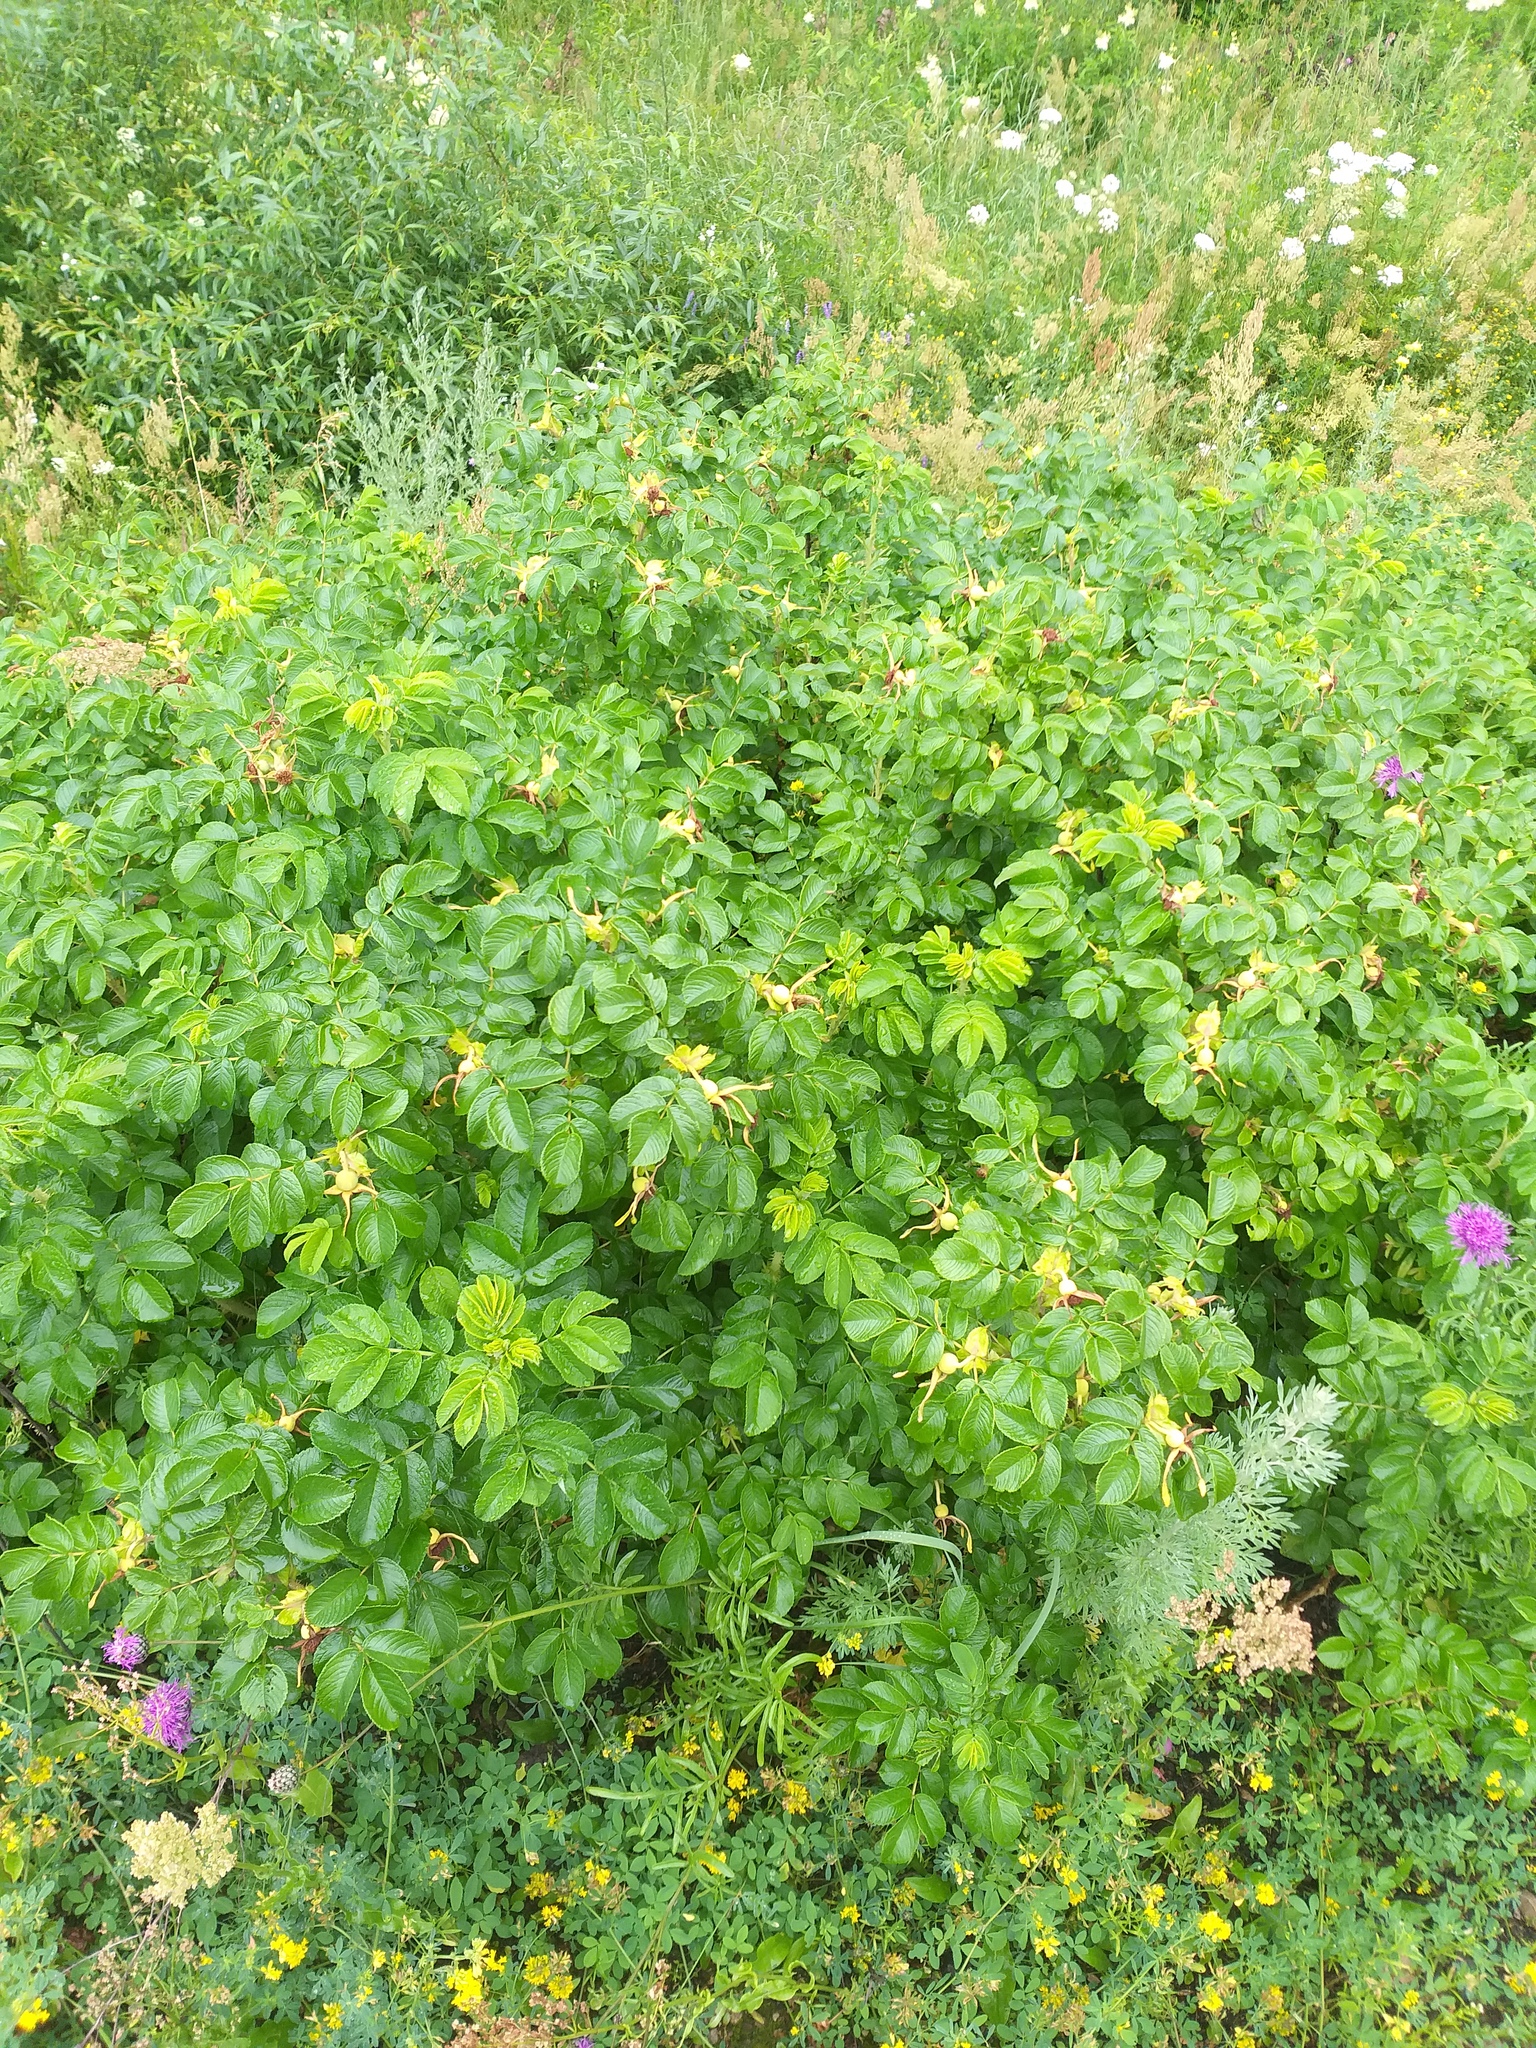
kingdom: Plantae
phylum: Tracheophyta
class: Magnoliopsida
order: Rosales
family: Rosaceae
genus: Rosa
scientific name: Rosa rugosa
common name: Japanese rose
